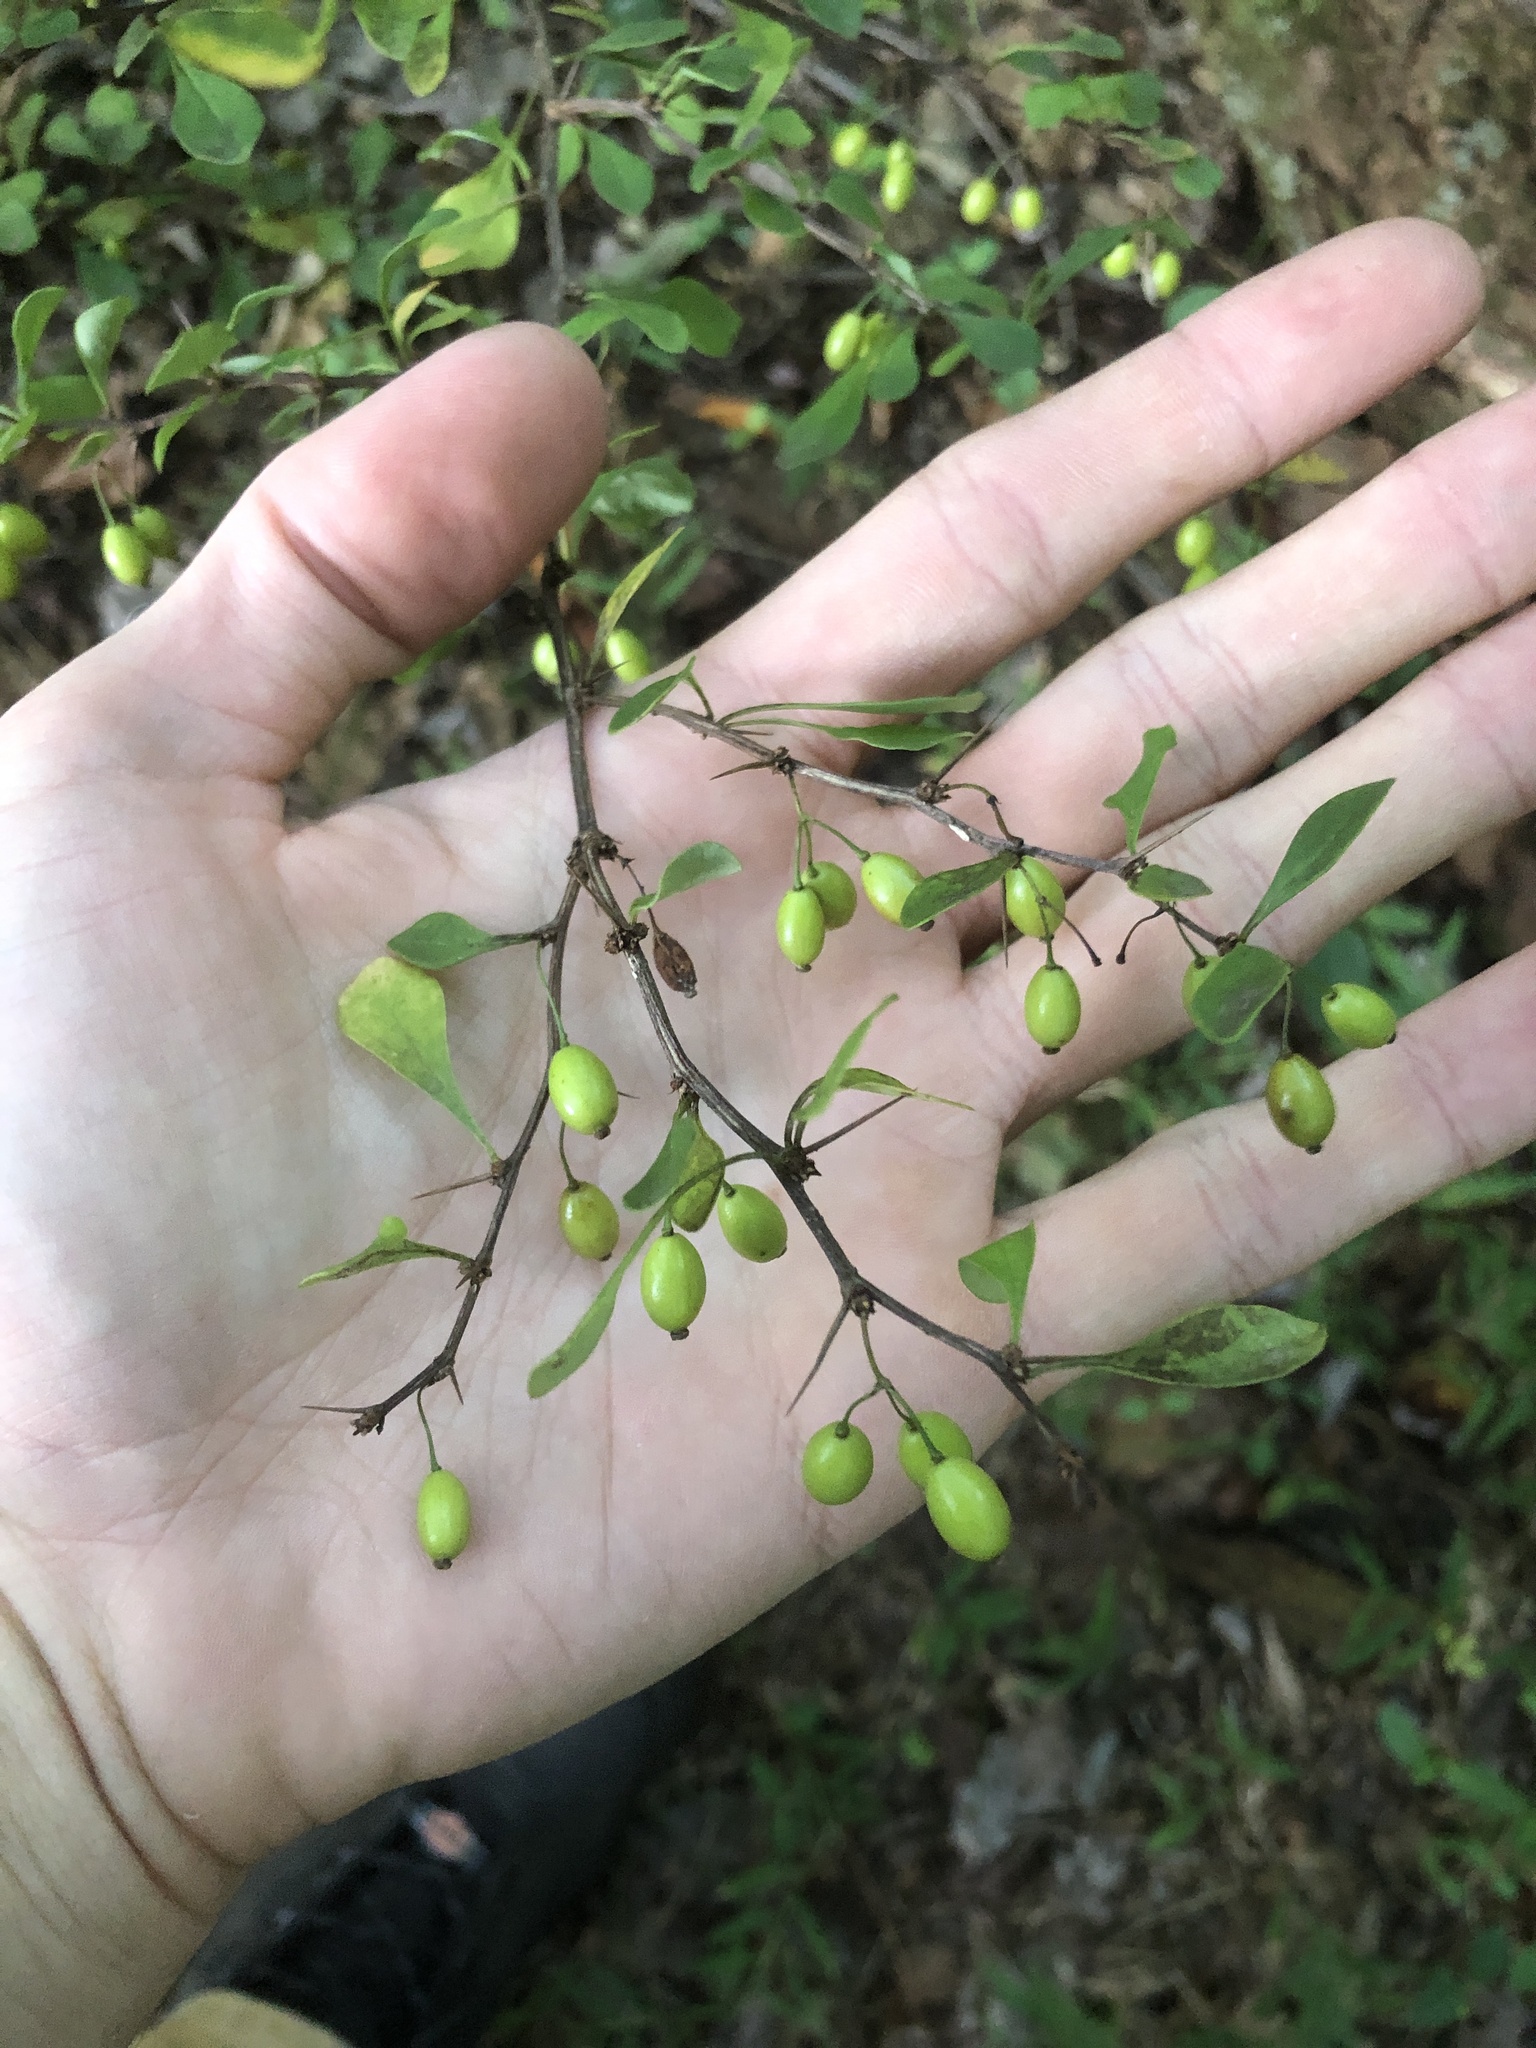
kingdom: Plantae
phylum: Tracheophyta
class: Magnoliopsida
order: Ranunculales
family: Berberidaceae
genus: Berberis
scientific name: Berberis thunbergii
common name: Japanese barberry
